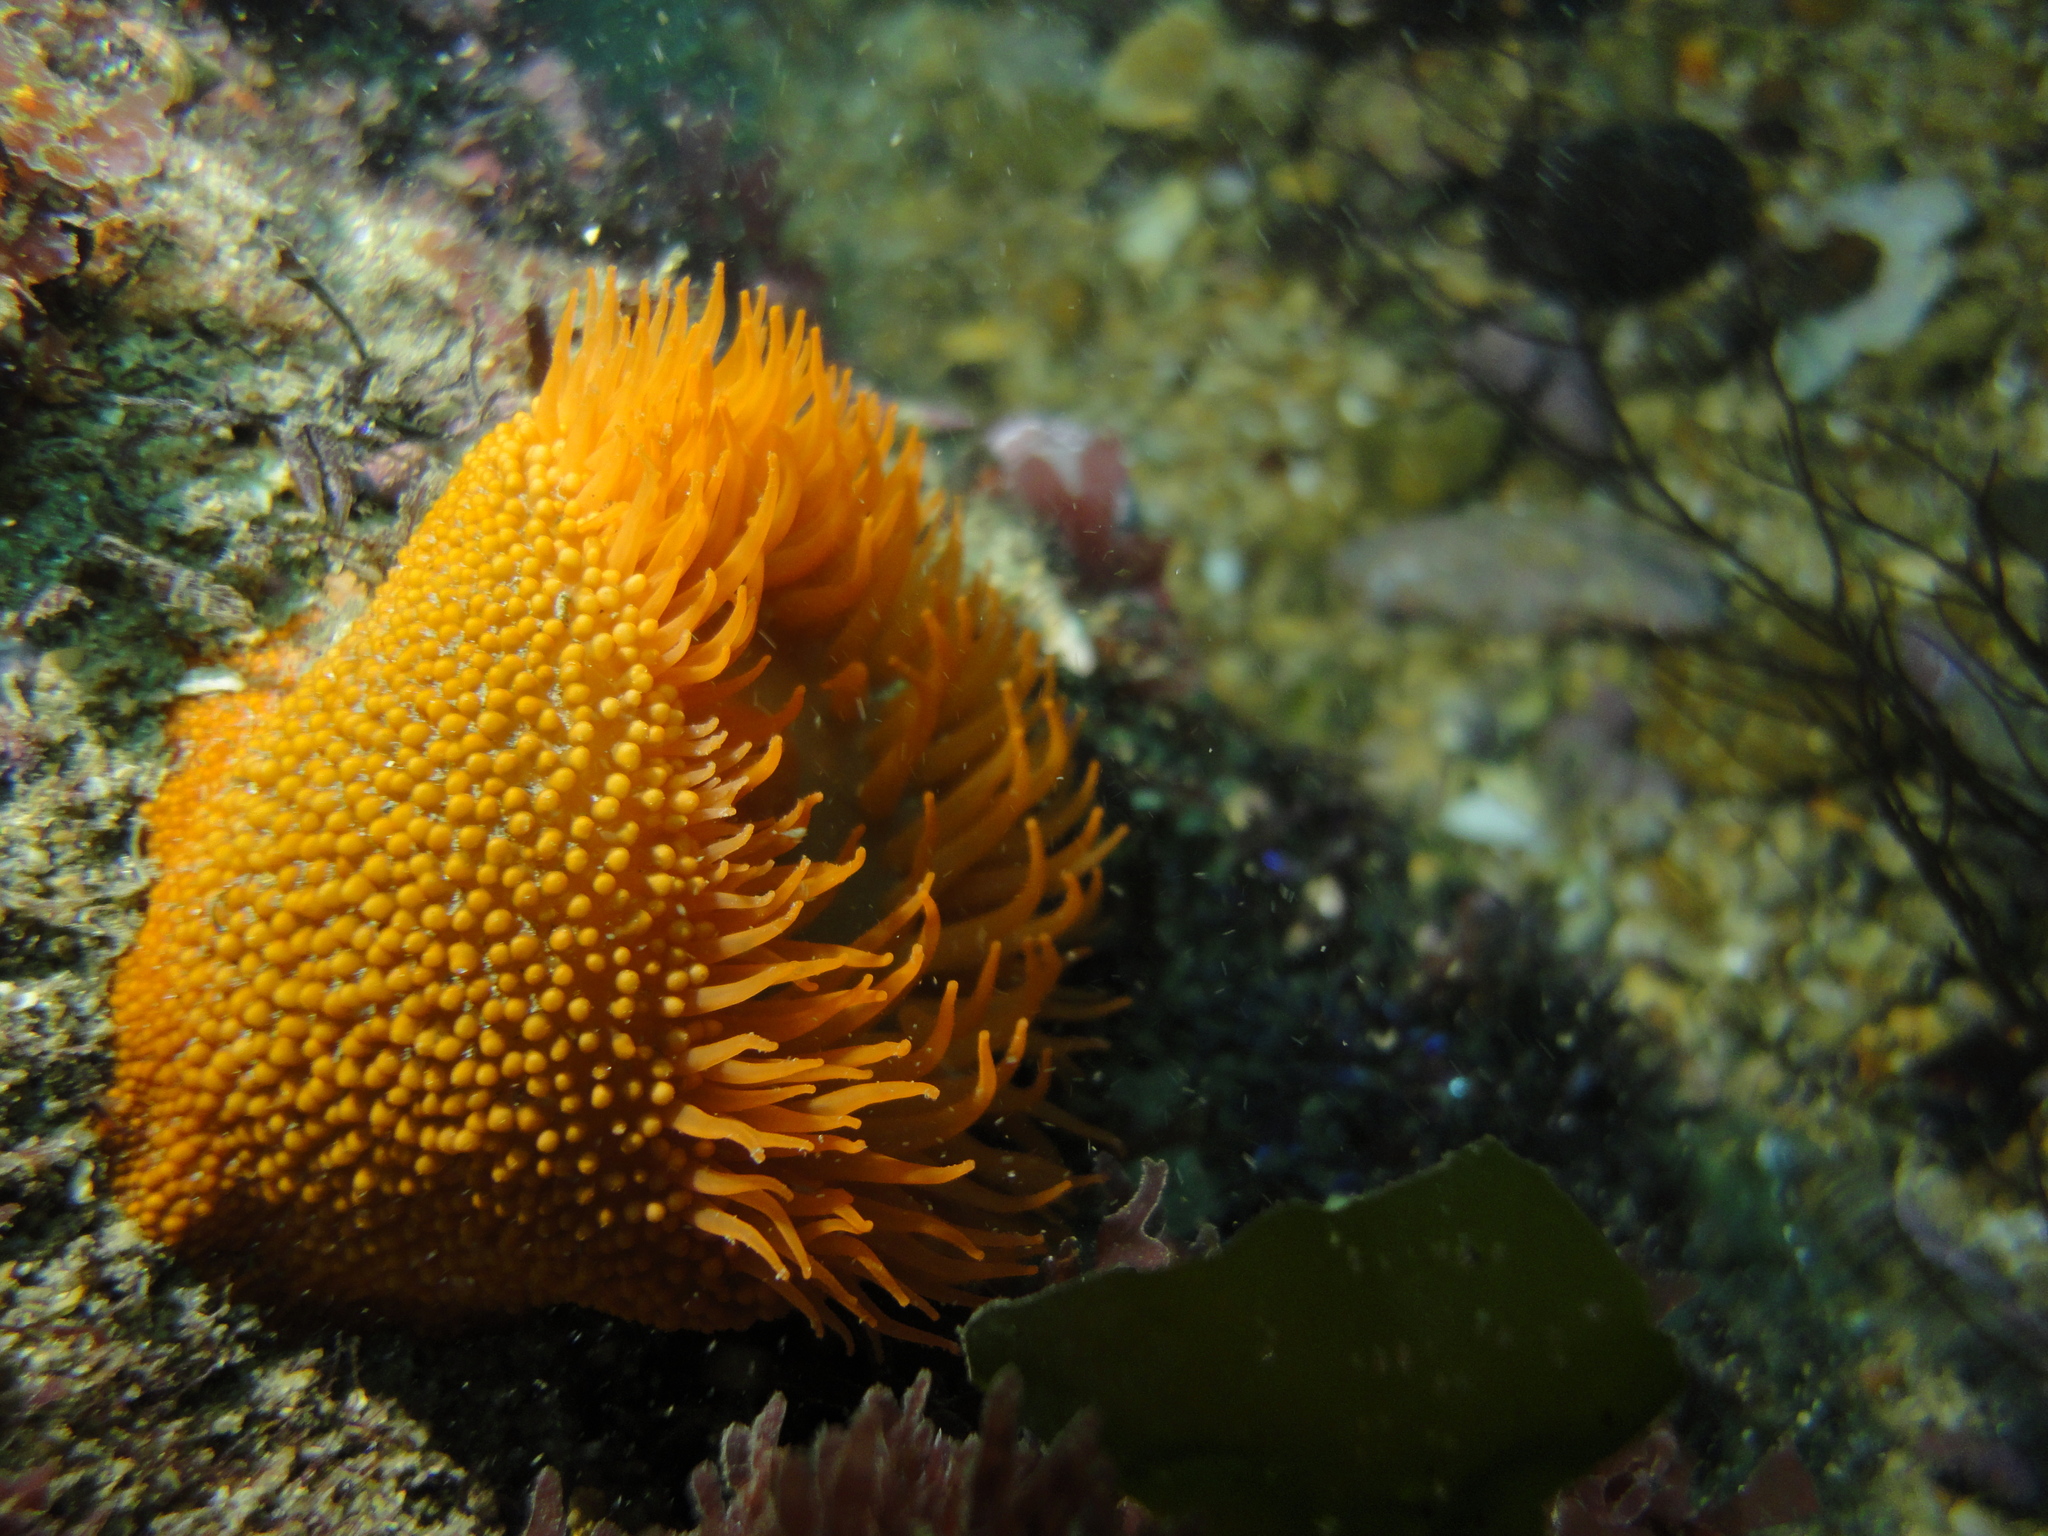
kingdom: Animalia
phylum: Cnidaria
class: Anthozoa
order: Actiniaria
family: Actiniidae
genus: Phymanthea
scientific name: Phymanthea pluvia
